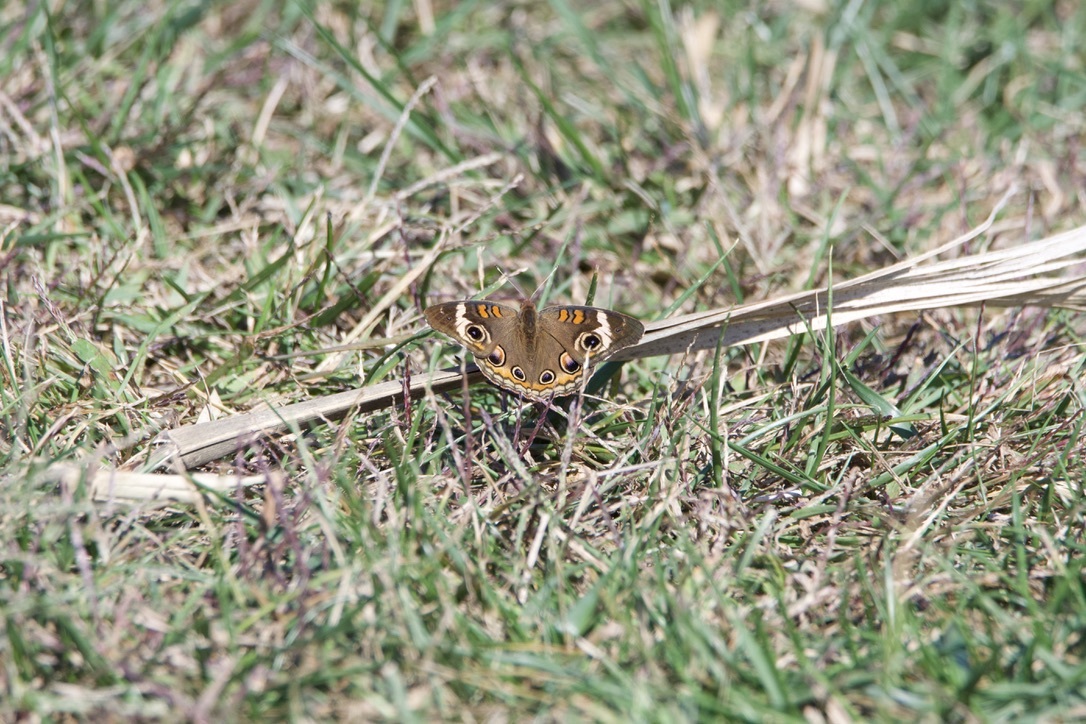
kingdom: Animalia
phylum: Arthropoda
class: Insecta
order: Lepidoptera
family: Nymphalidae
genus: Junonia
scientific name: Junonia coenia
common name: Common buckeye
